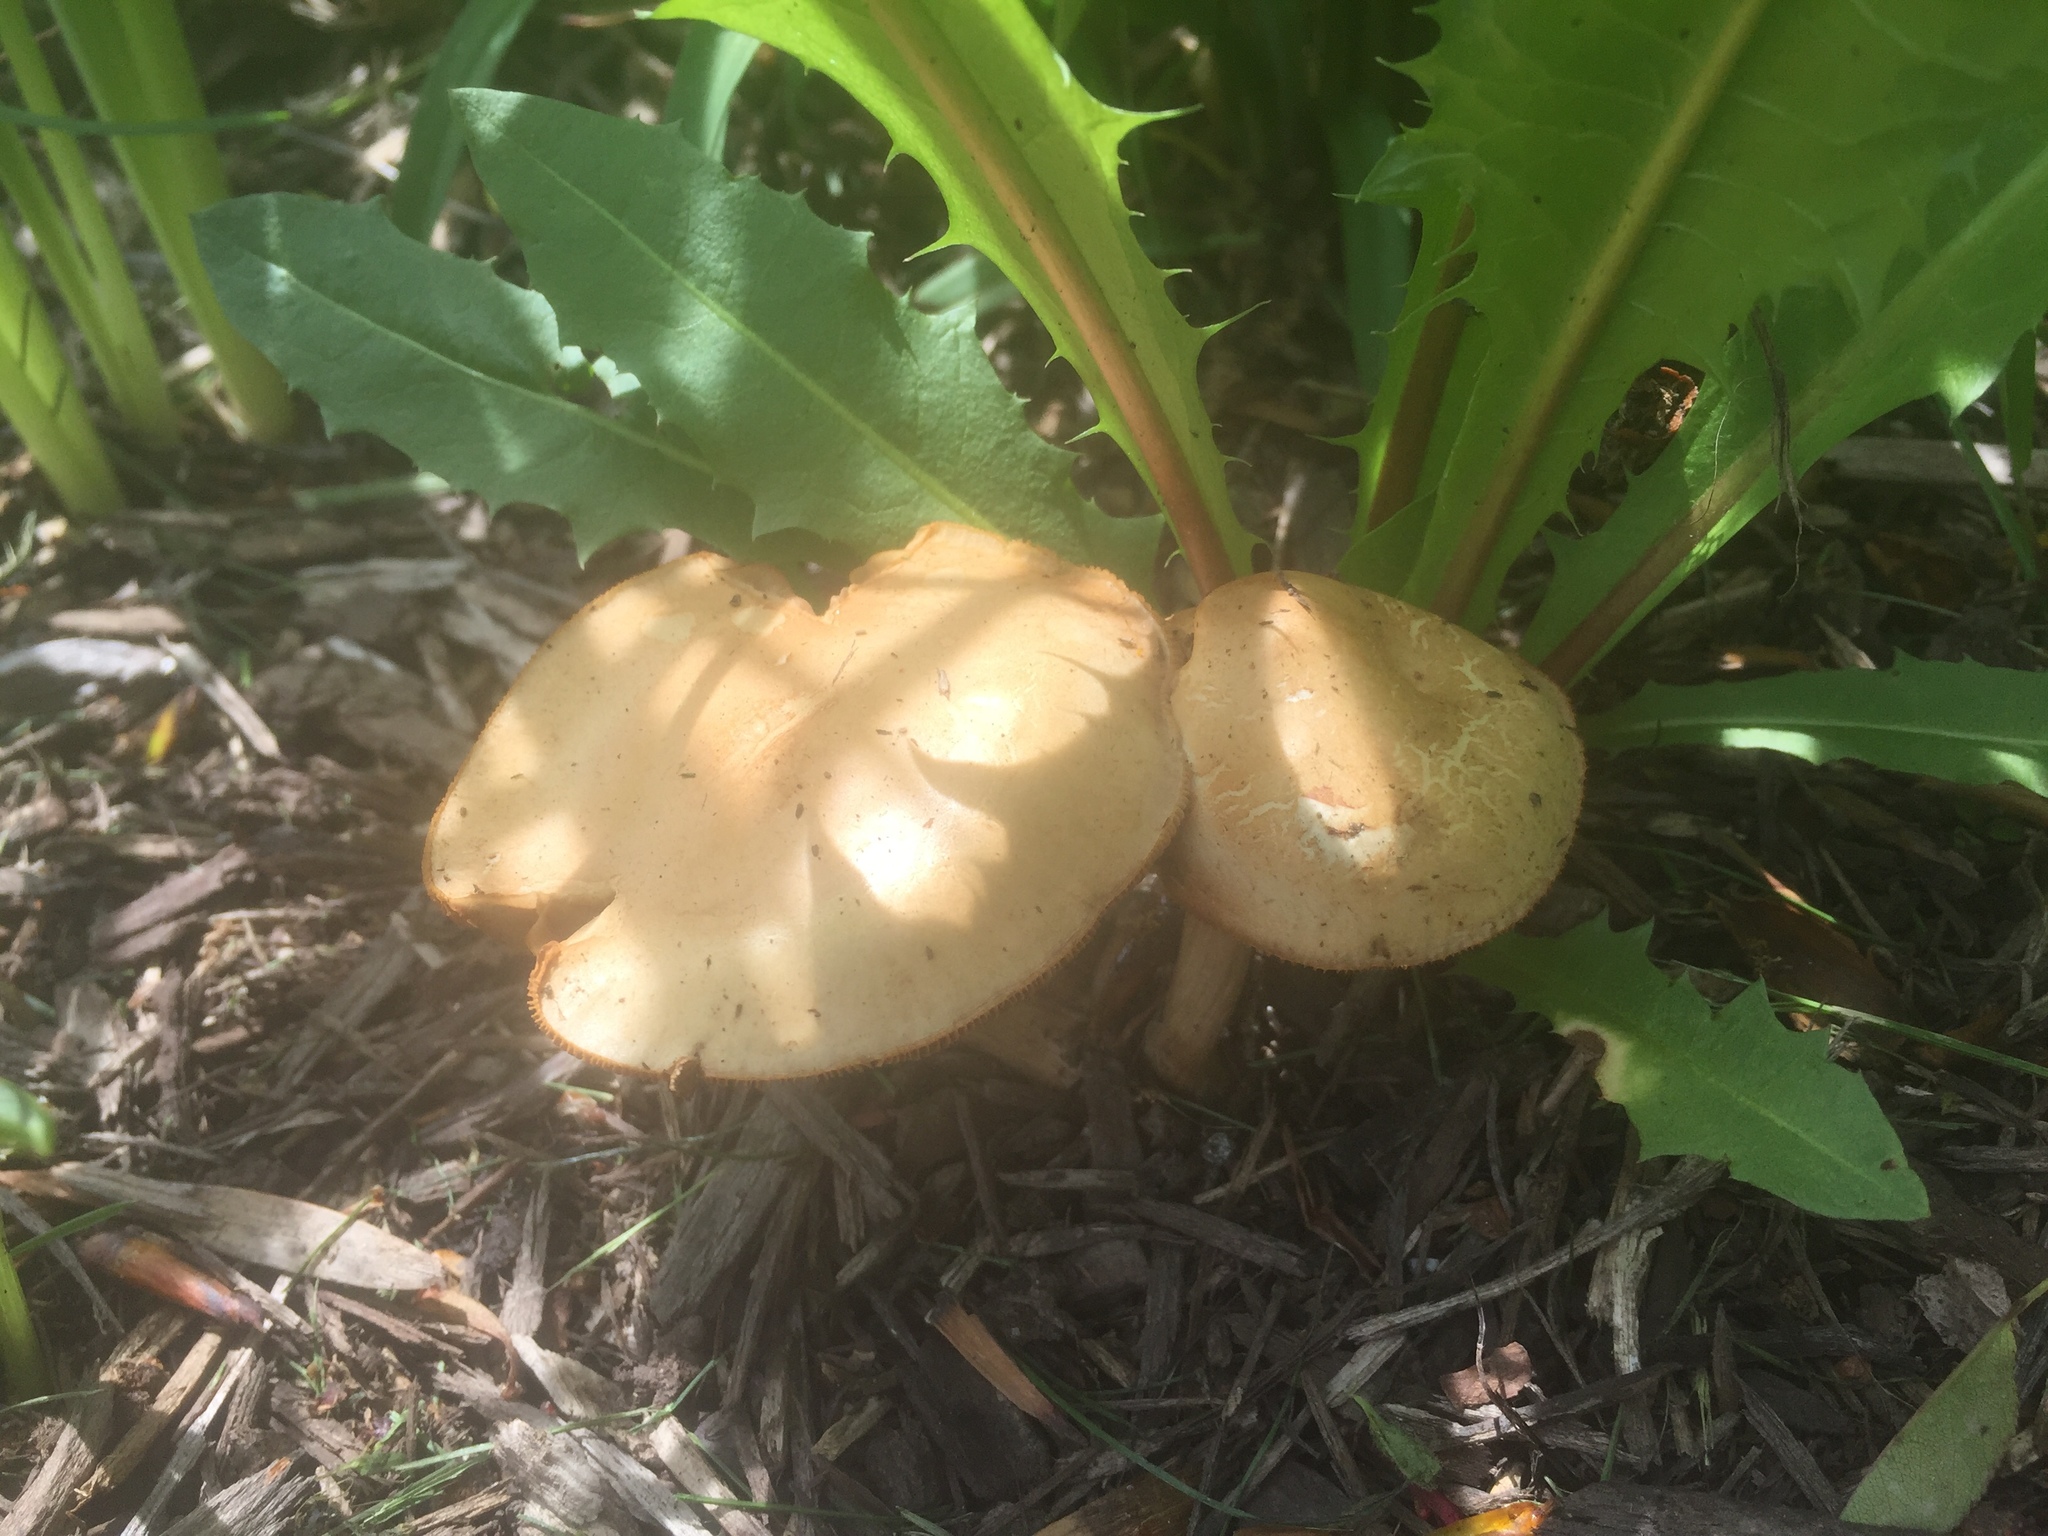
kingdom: Fungi
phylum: Basidiomycota
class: Agaricomycetes
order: Agaricales
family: Strophariaceae
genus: Agrocybe
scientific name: Agrocybe praecox
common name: Spring fieldcap
